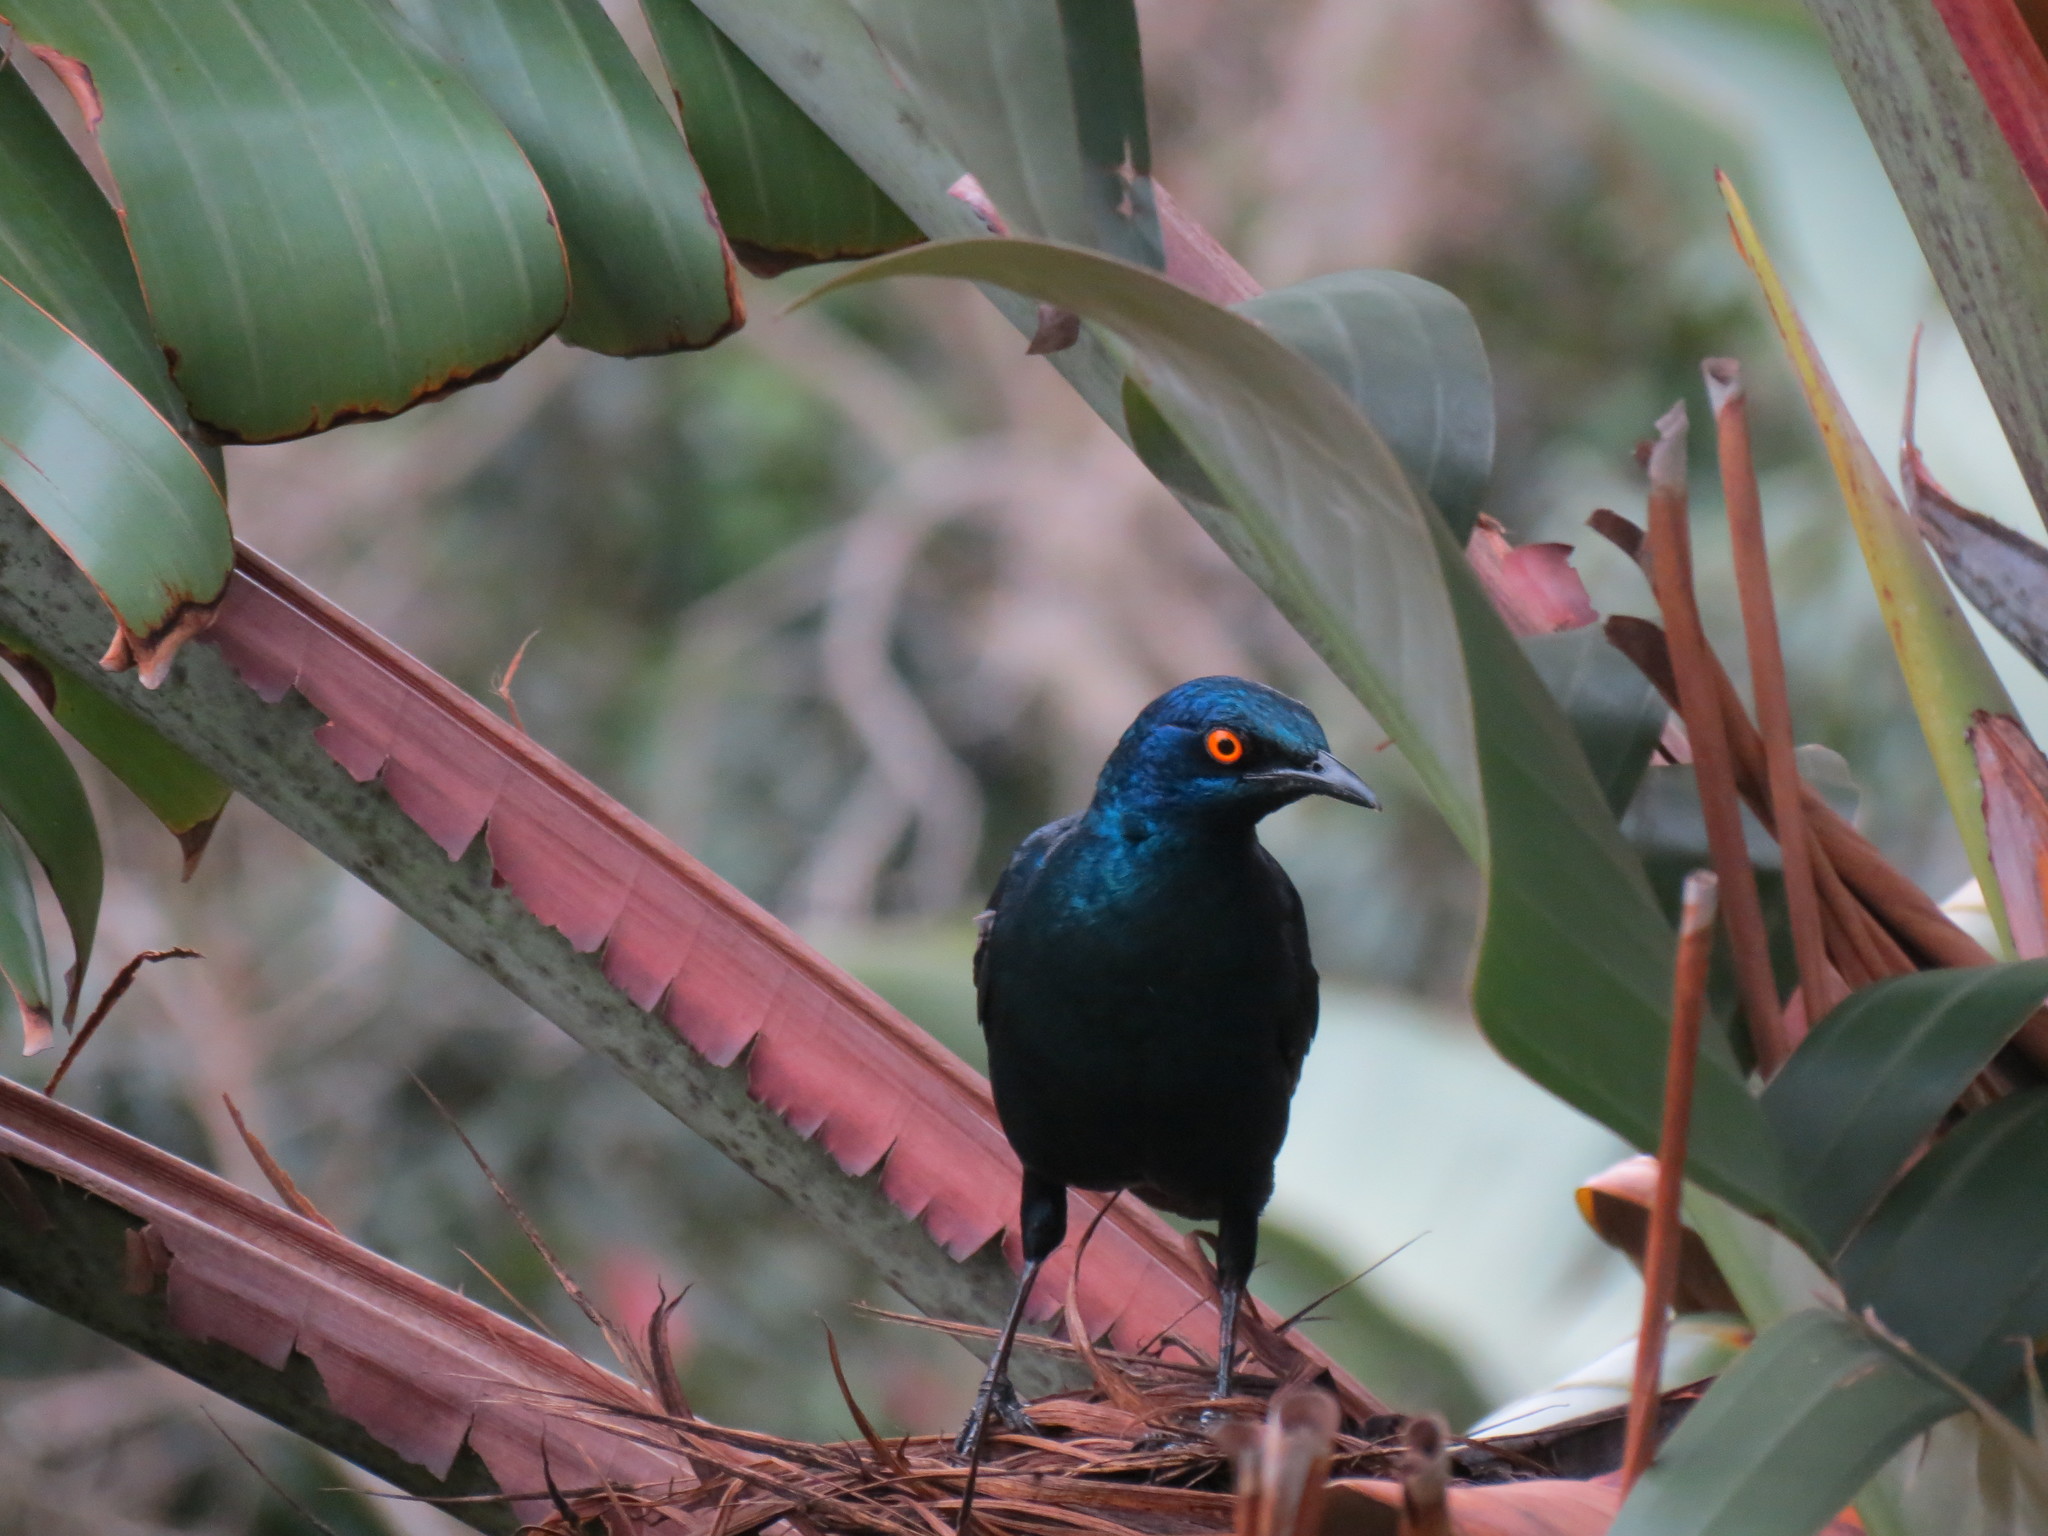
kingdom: Animalia
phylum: Chordata
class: Aves
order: Passeriformes
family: Sturnidae
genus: Lamprotornis
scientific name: Lamprotornis nitens
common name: Cape starling
